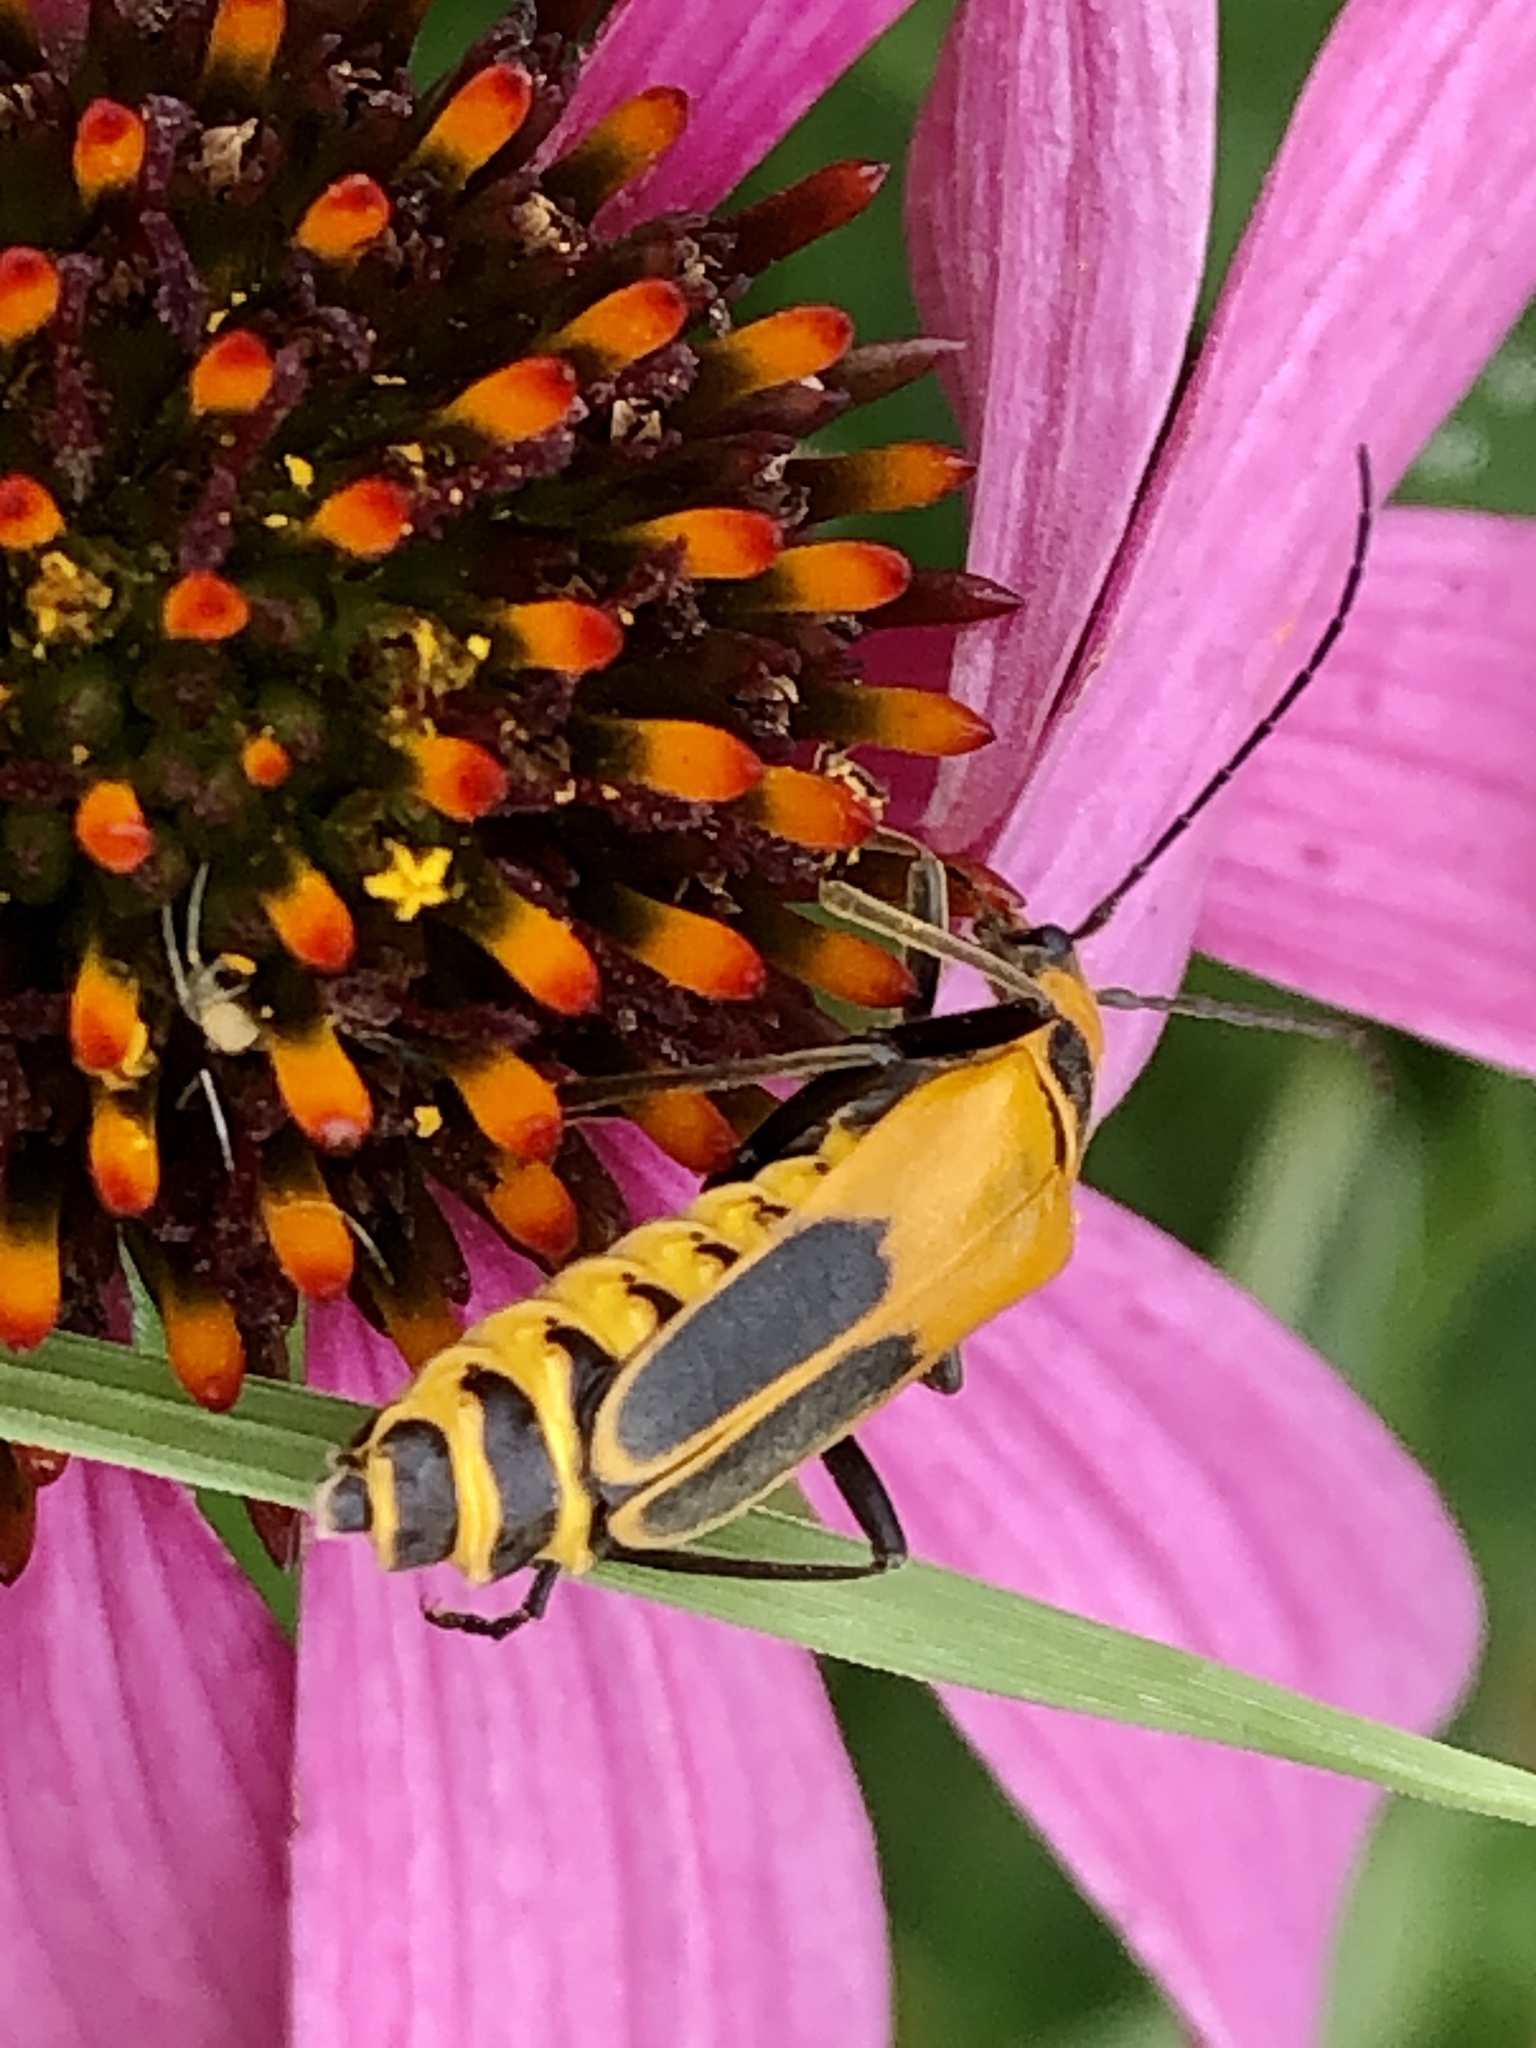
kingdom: Animalia
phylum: Arthropoda
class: Insecta
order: Coleoptera
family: Cantharidae
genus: Chauliognathus
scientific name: Chauliognathus pensylvanicus
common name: Goldenrod soldier beetle
